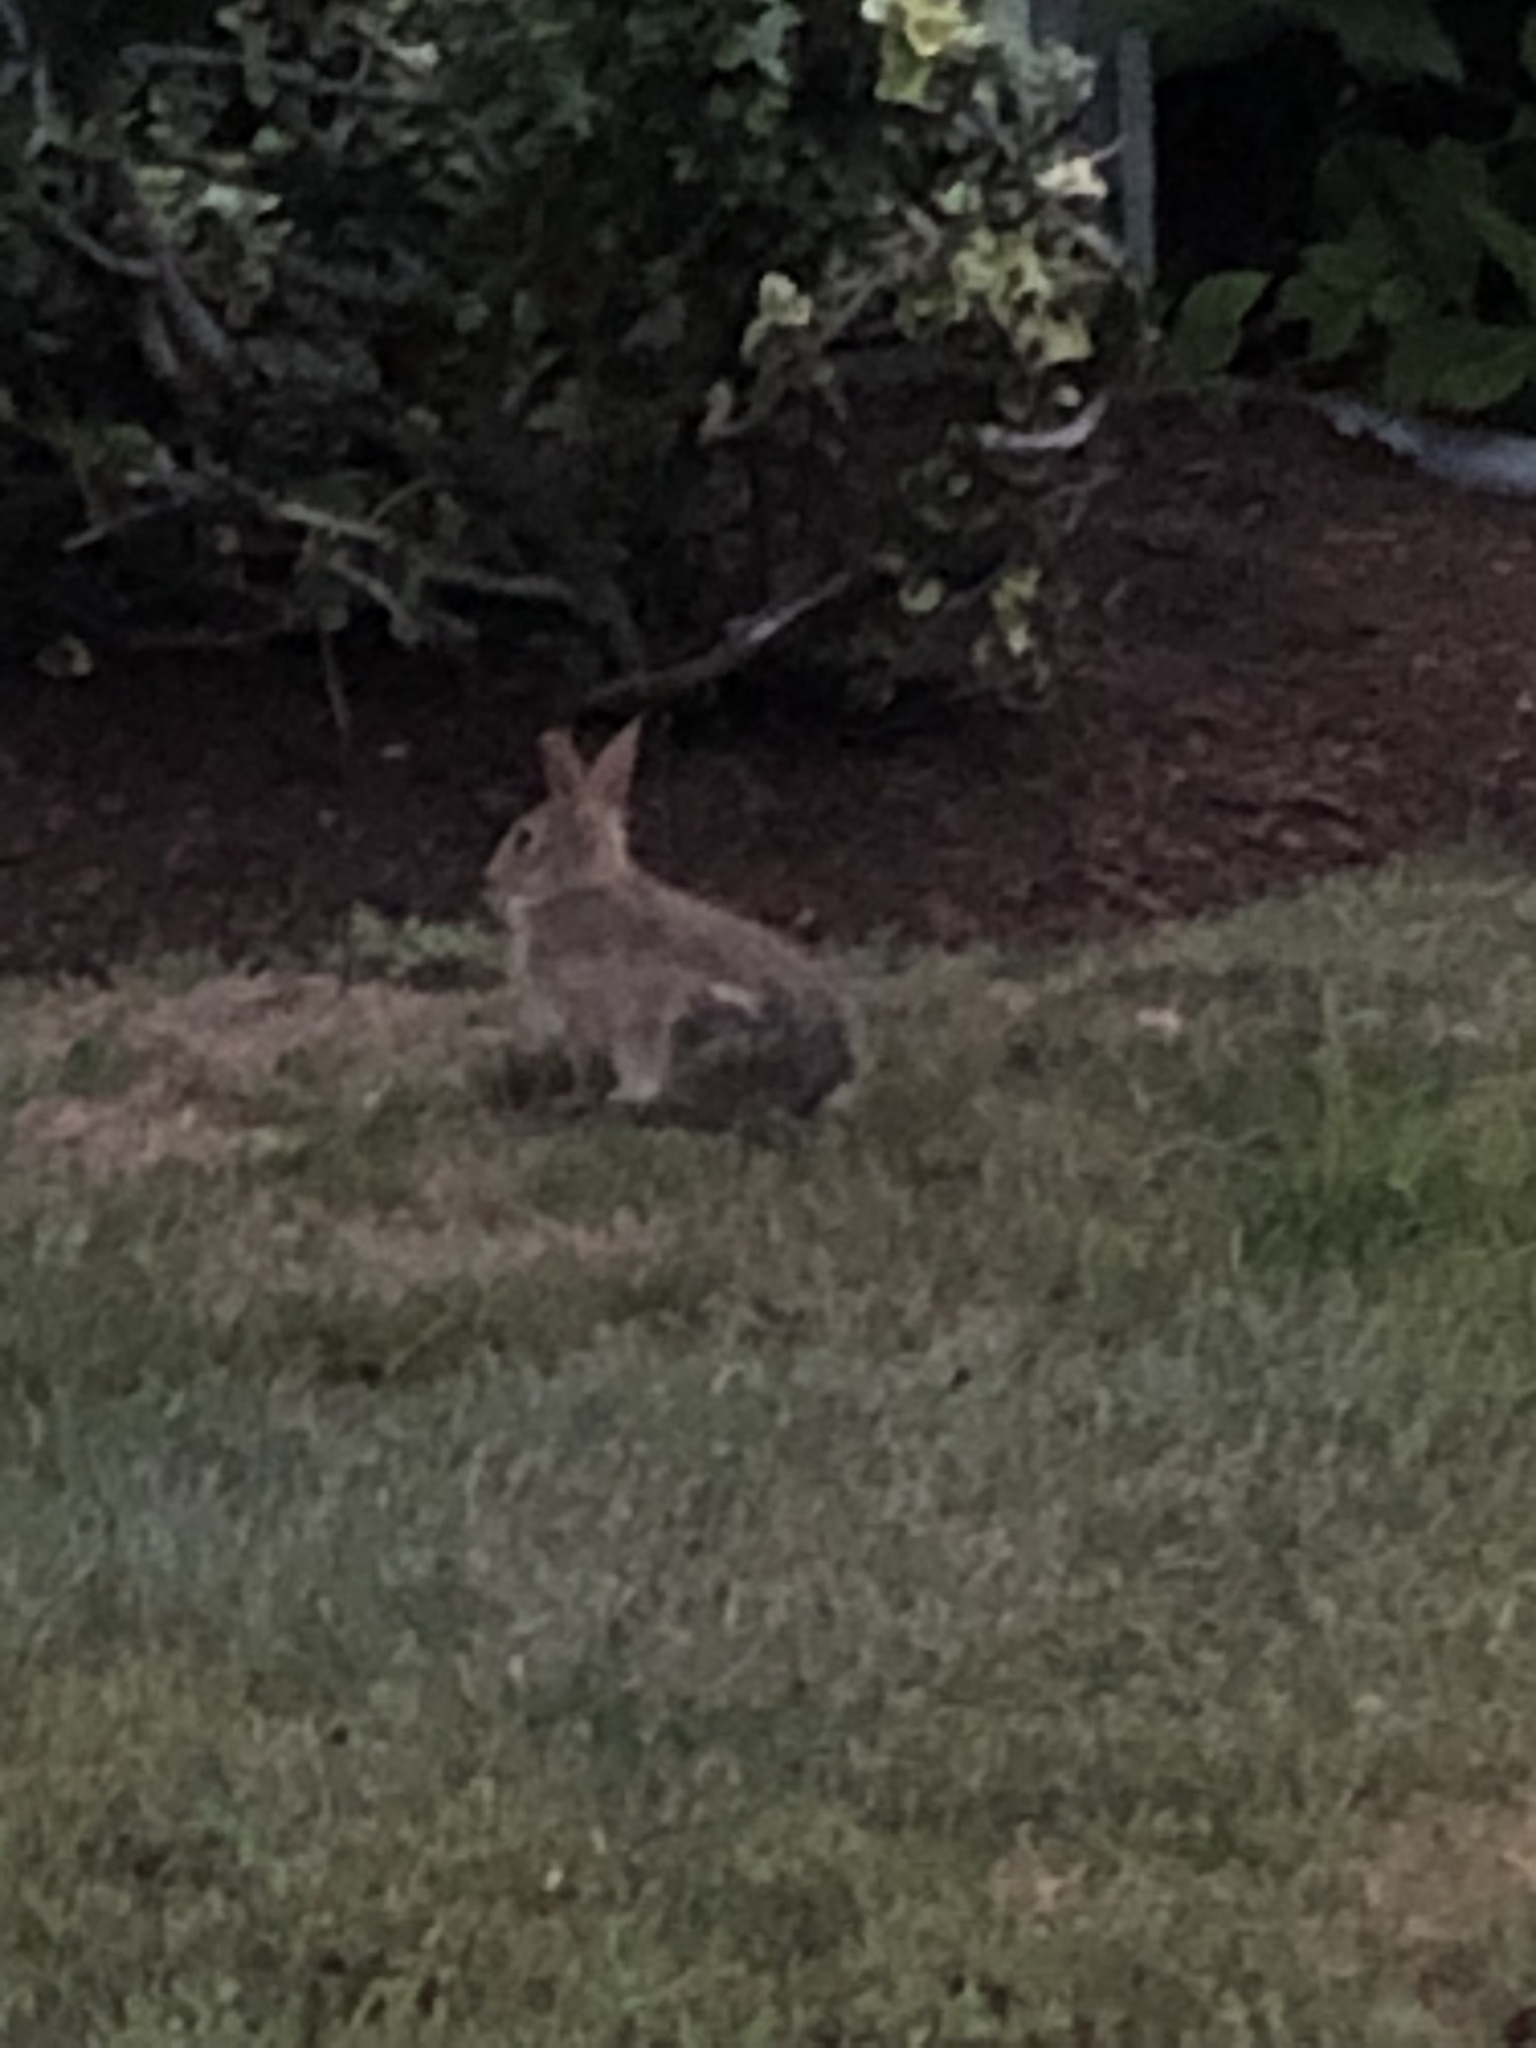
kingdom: Animalia
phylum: Chordata
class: Mammalia
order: Lagomorpha
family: Leporidae
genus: Sylvilagus
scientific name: Sylvilagus floridanus
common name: Eastern cottontail
